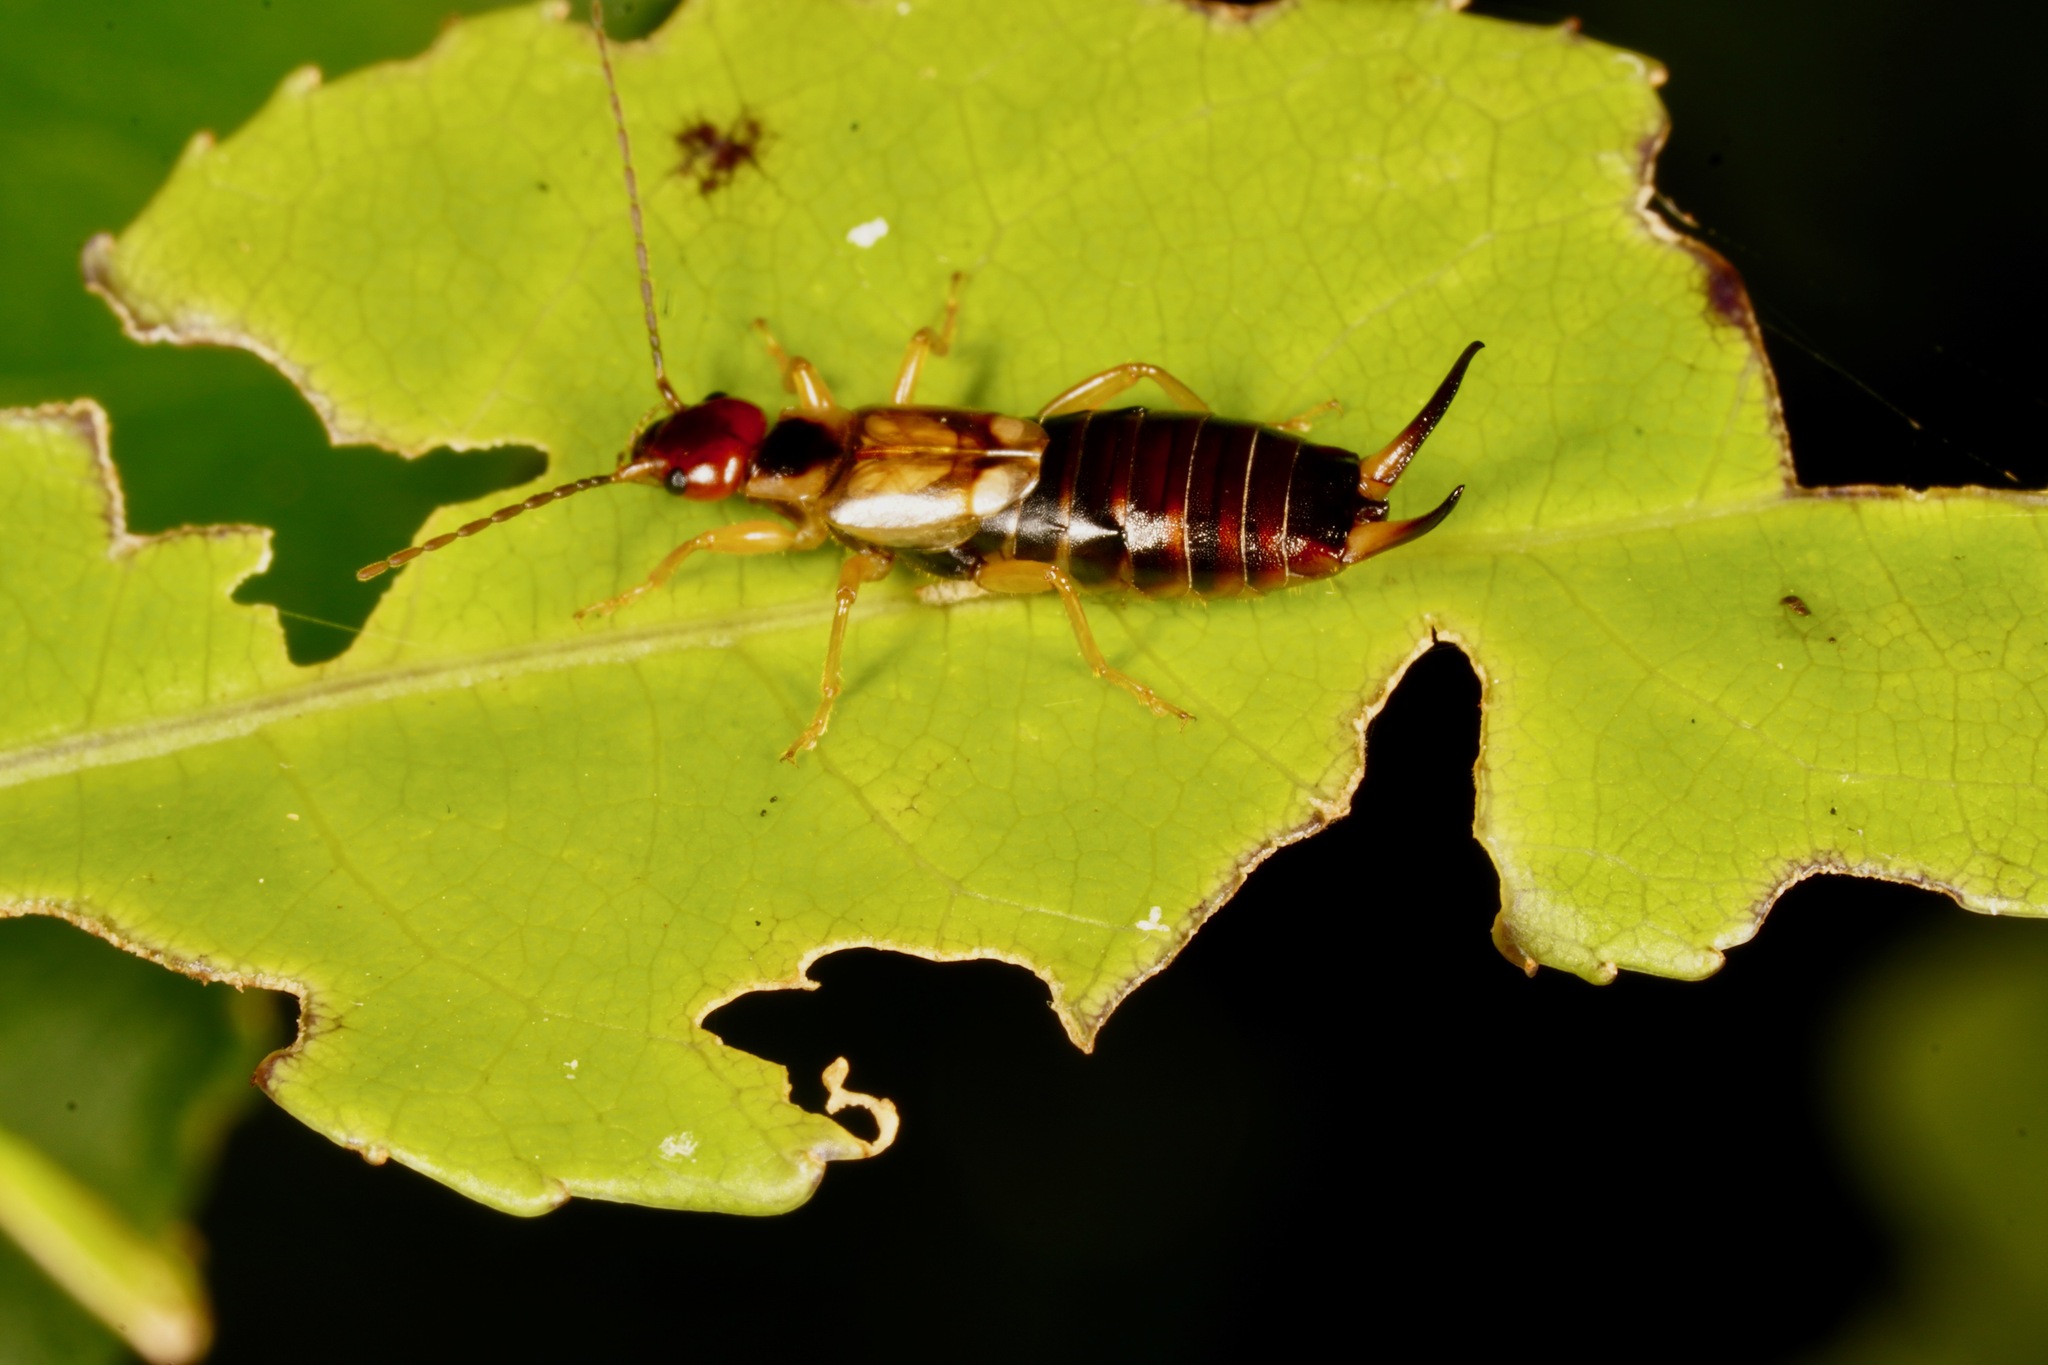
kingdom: Animalia
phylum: Arthropoda
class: Insecta
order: Dermaptera
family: Forficulidae
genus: Forficula
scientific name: Forficula dentata
